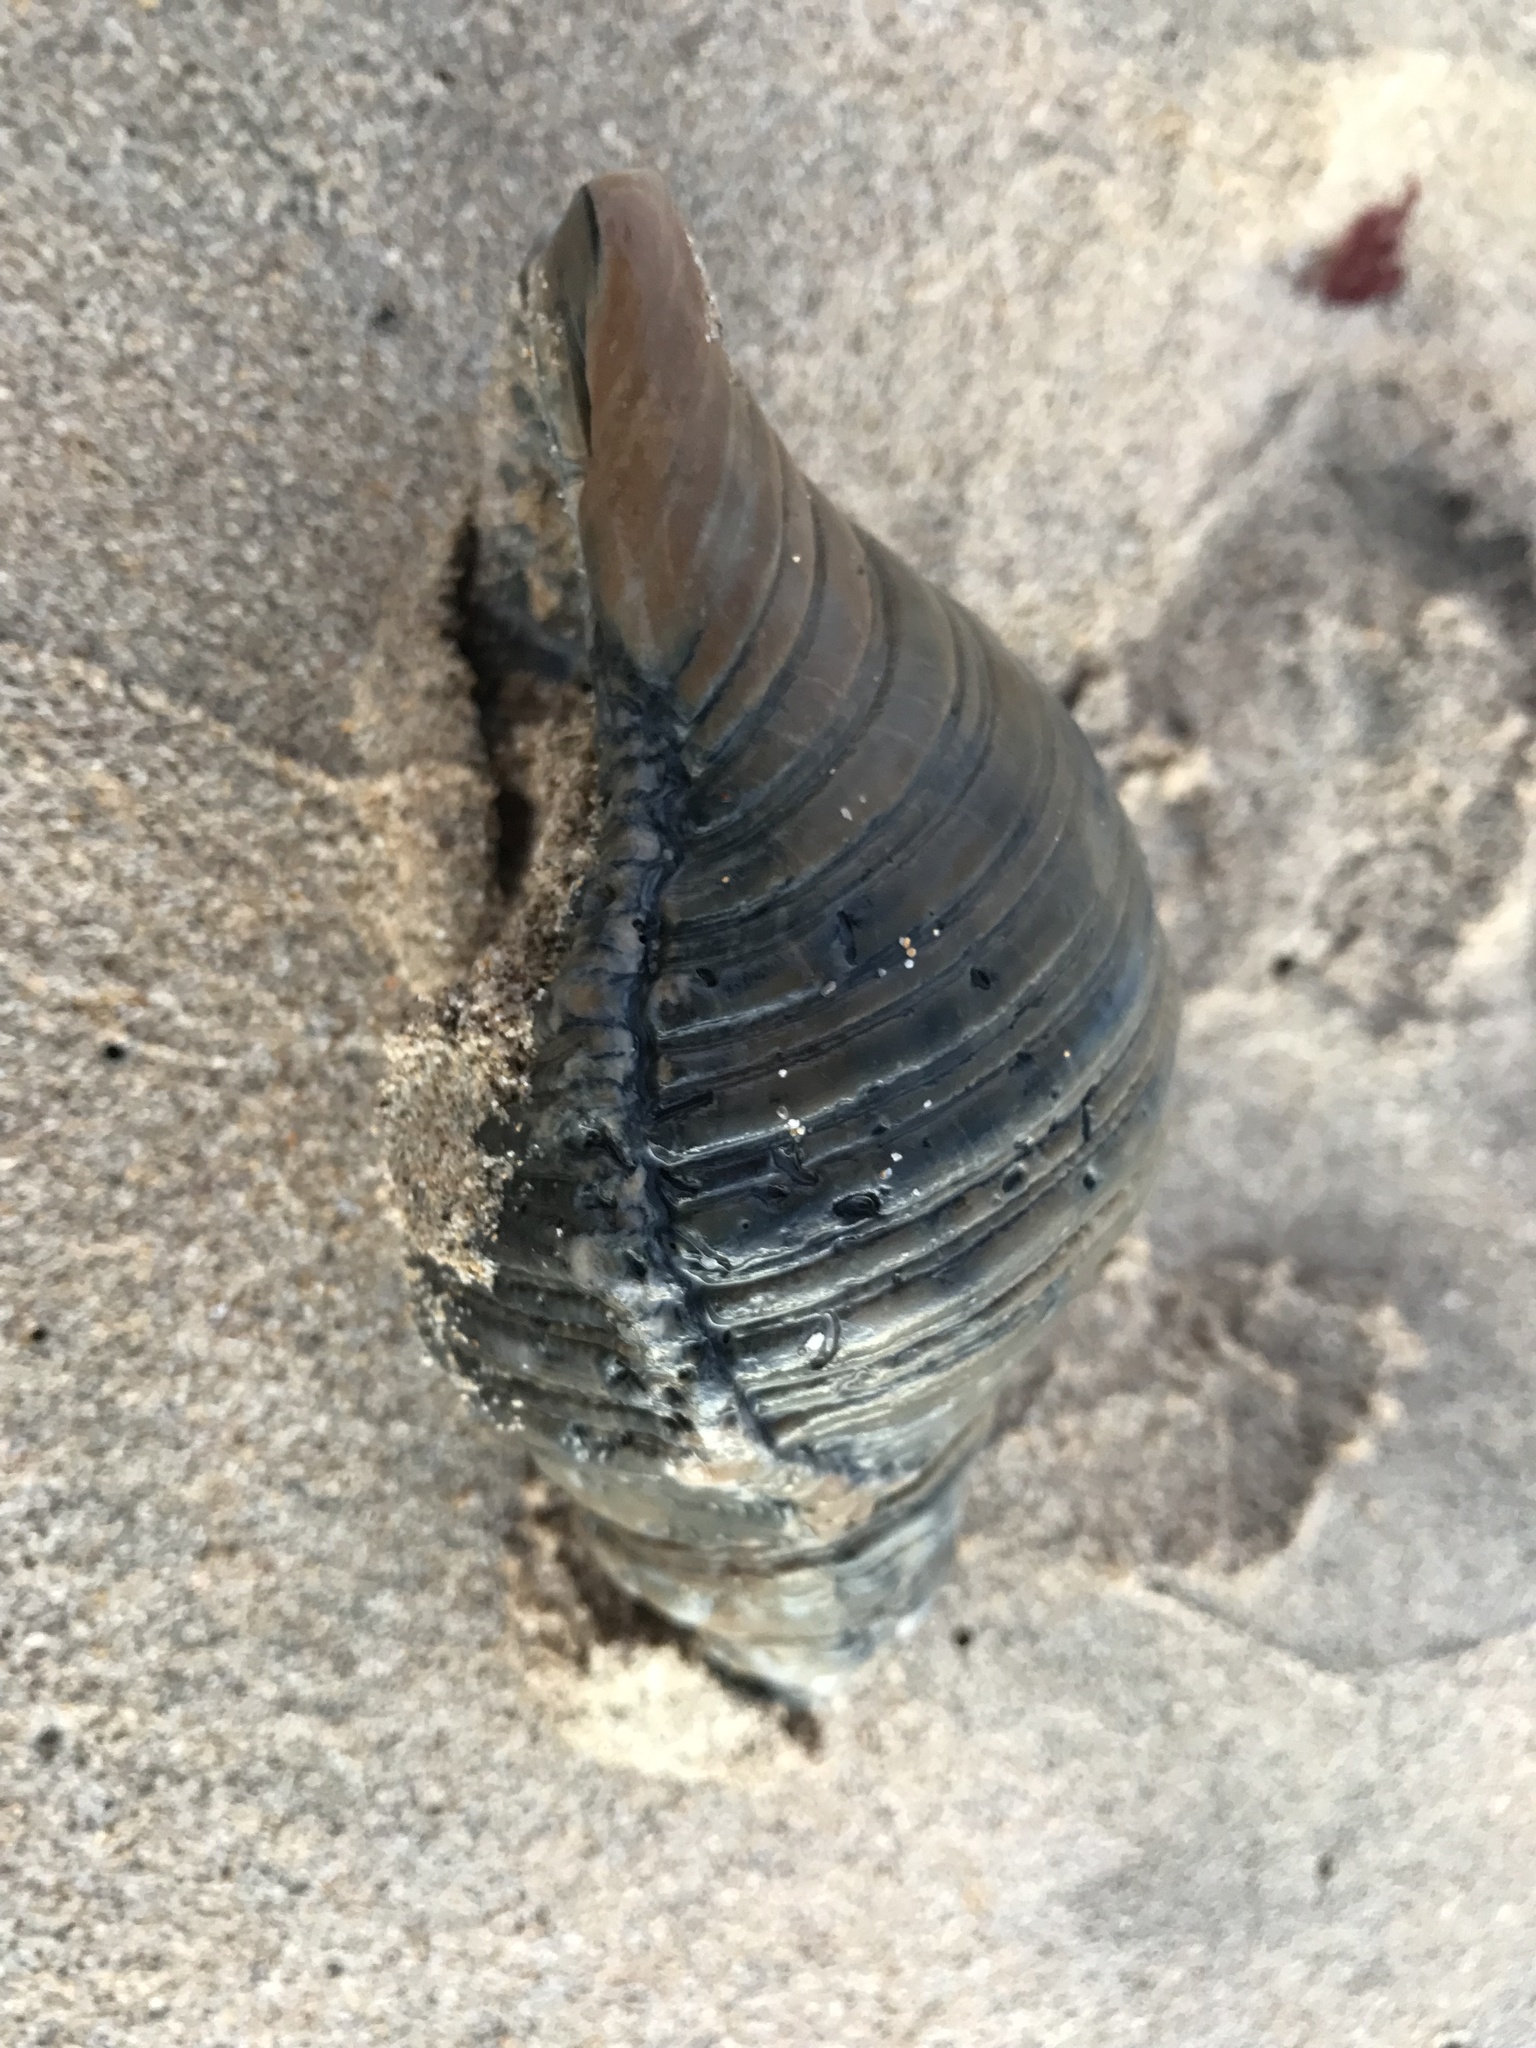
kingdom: Animalia
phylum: Mollusca
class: Gastropoda
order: Littorinimorpha
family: Cymatiidae
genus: Cabestana
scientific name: Cabestana spengleri
